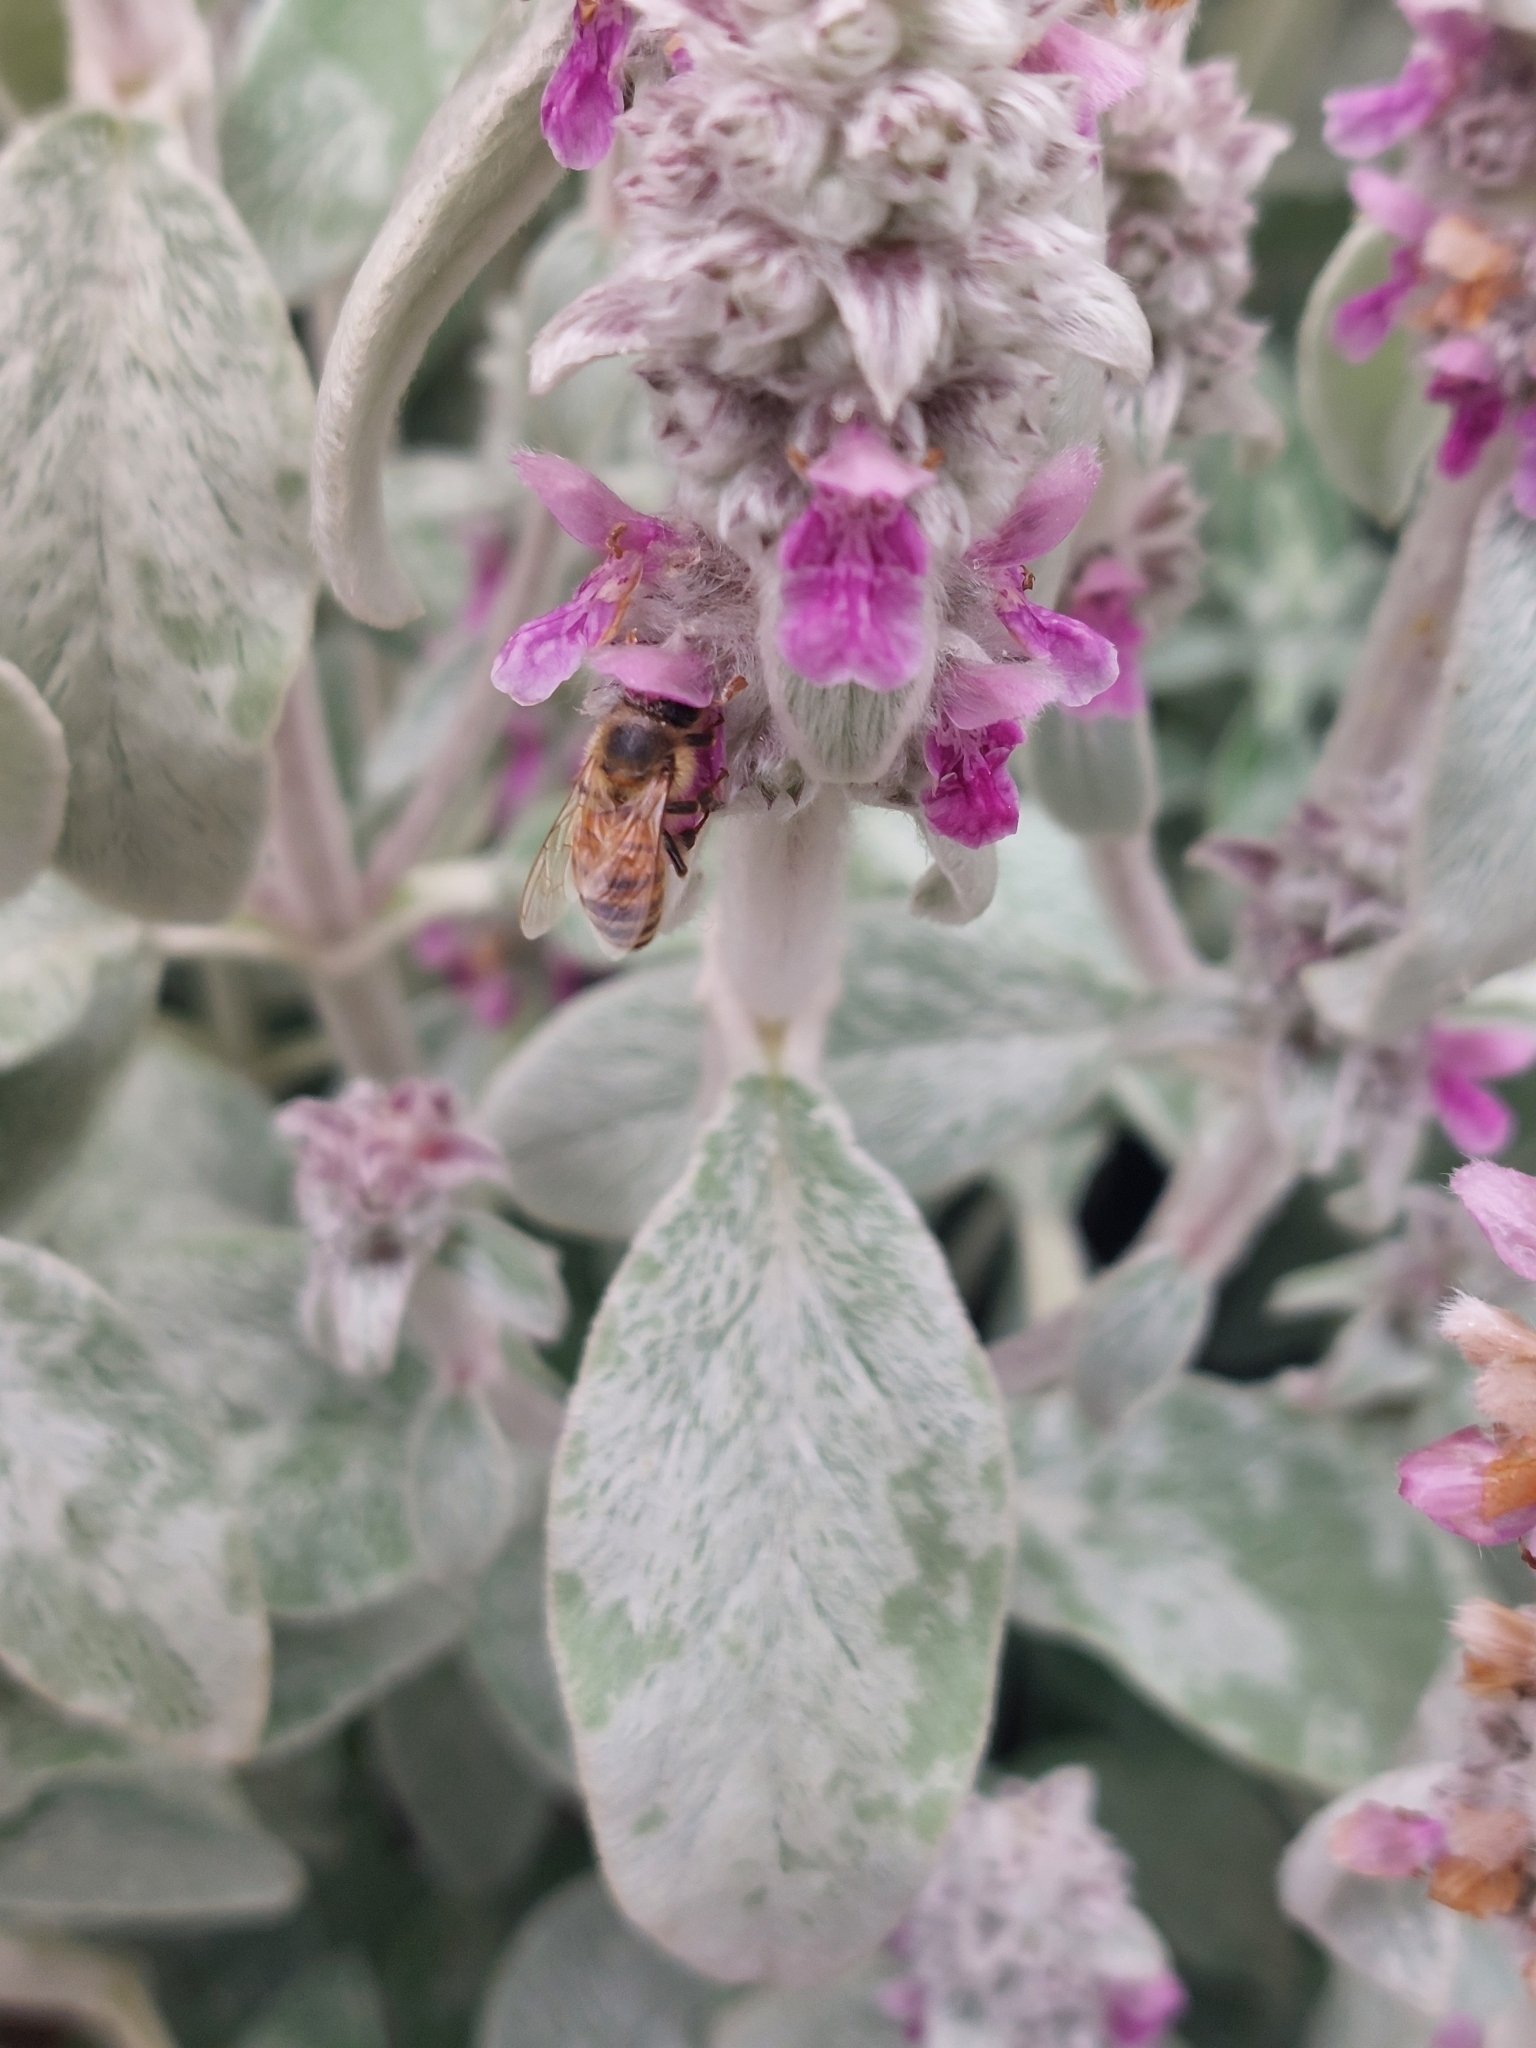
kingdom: Animalia
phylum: Arthropoda
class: Insecta
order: Hymenoptera
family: Apidae
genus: Apis
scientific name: Apis mellifera
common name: Honey bee
